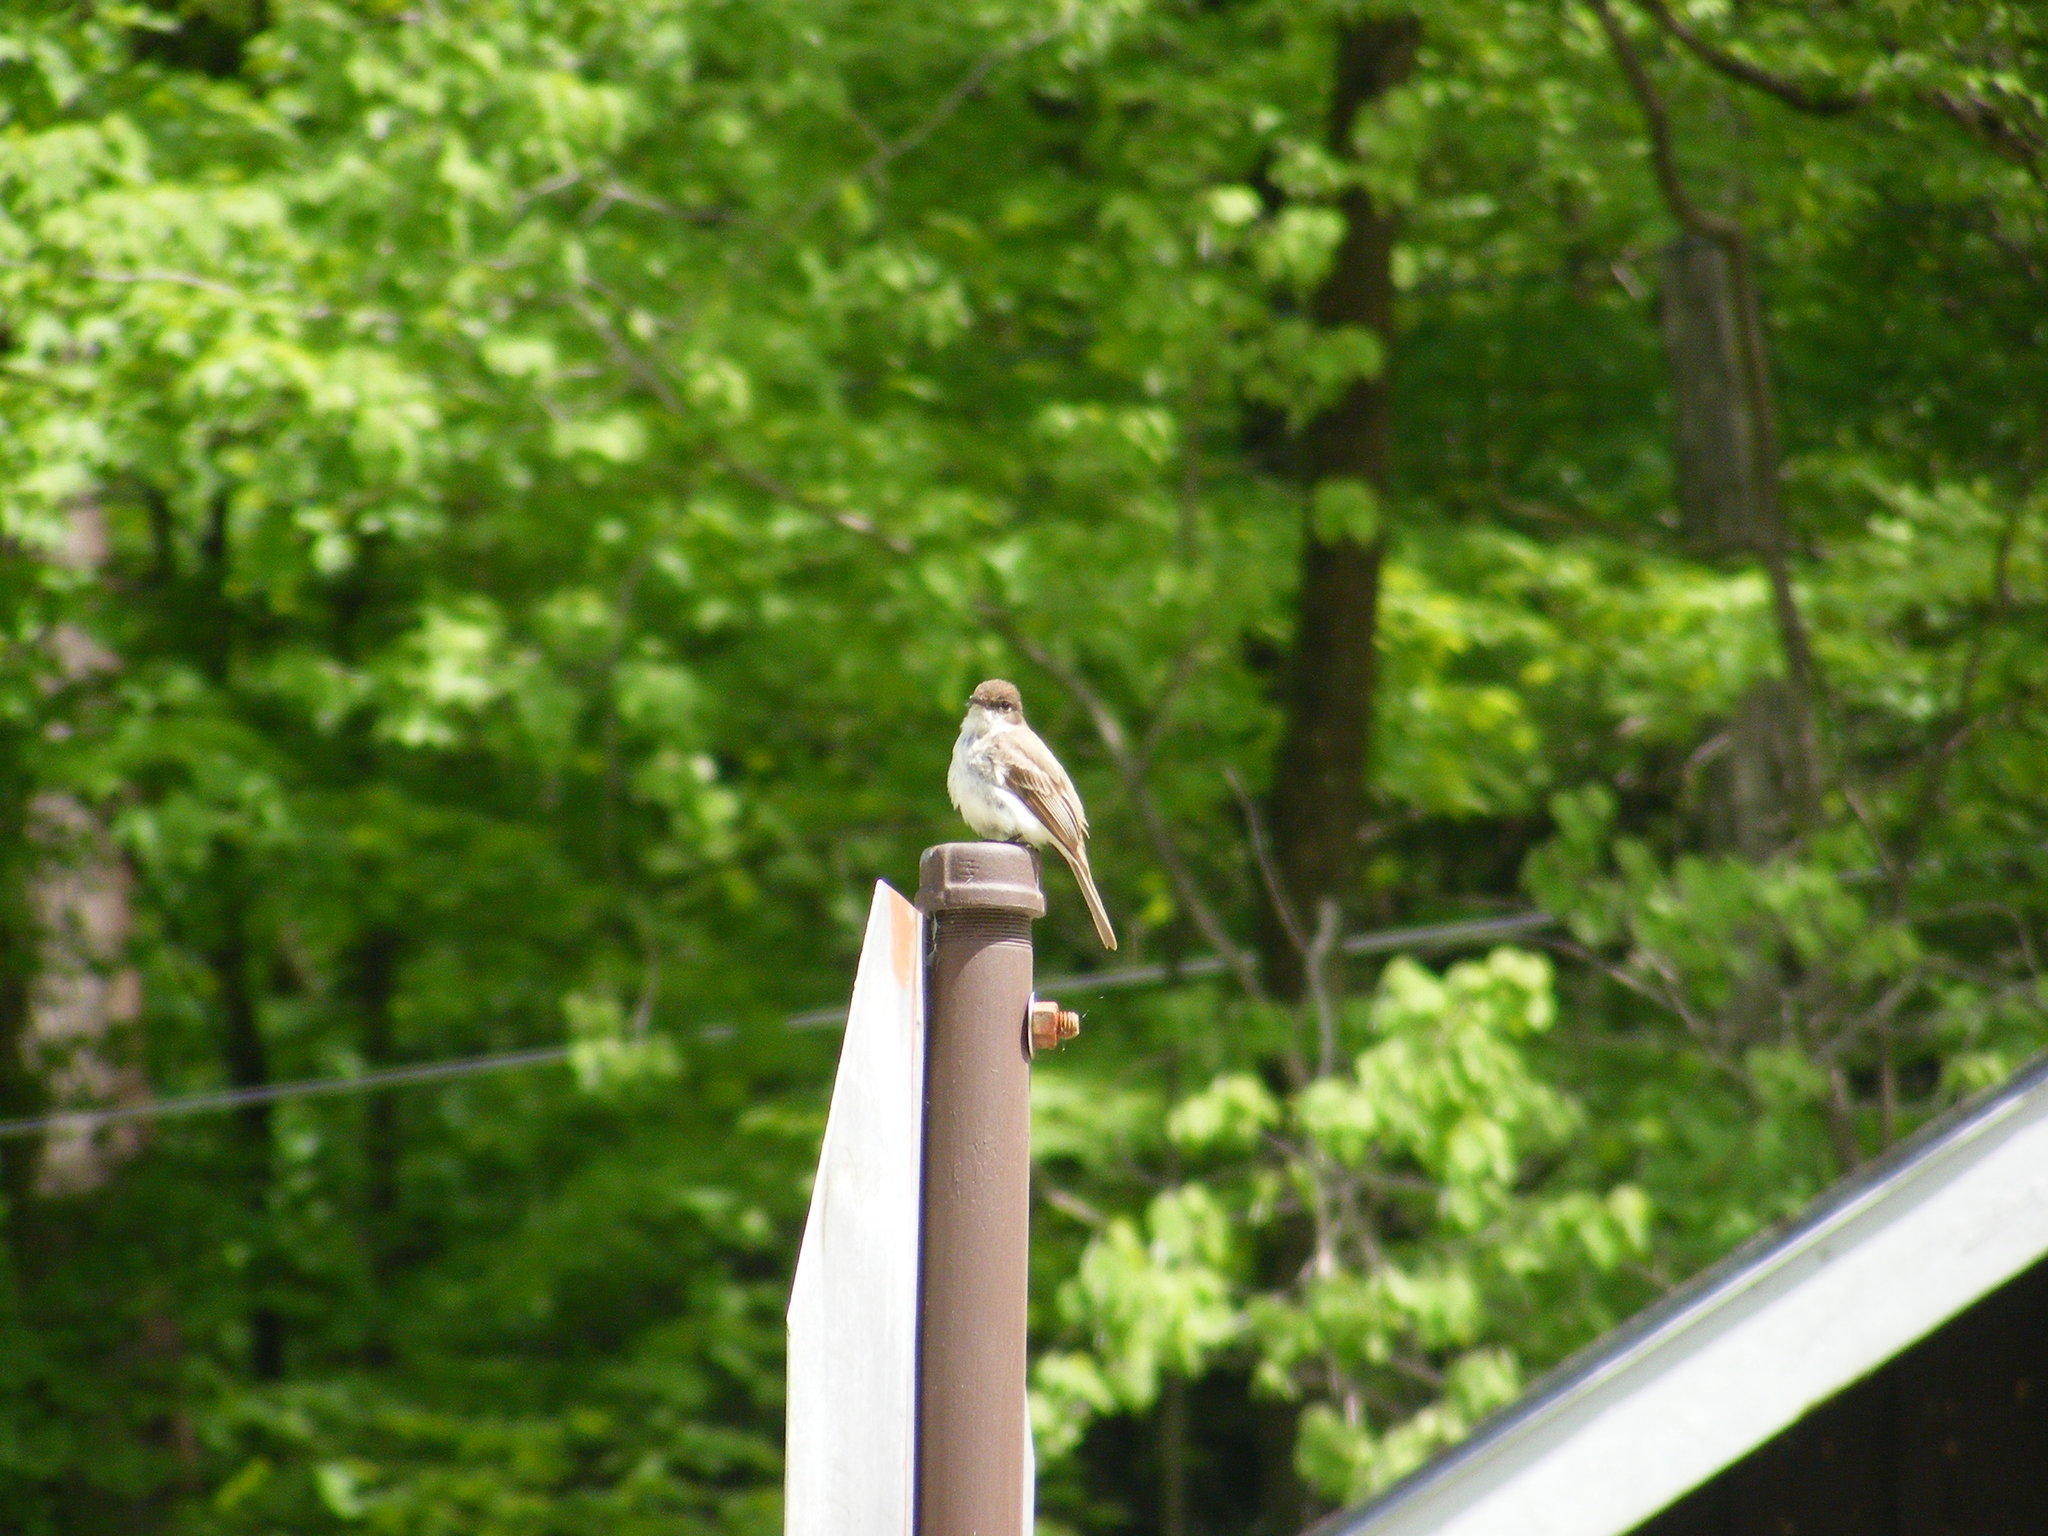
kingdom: Animalia
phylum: Chordata
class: Aves
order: Passeriformes
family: Tyrannidae
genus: Sayornis
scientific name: Sayornis phoebe
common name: Eastern phoebe
